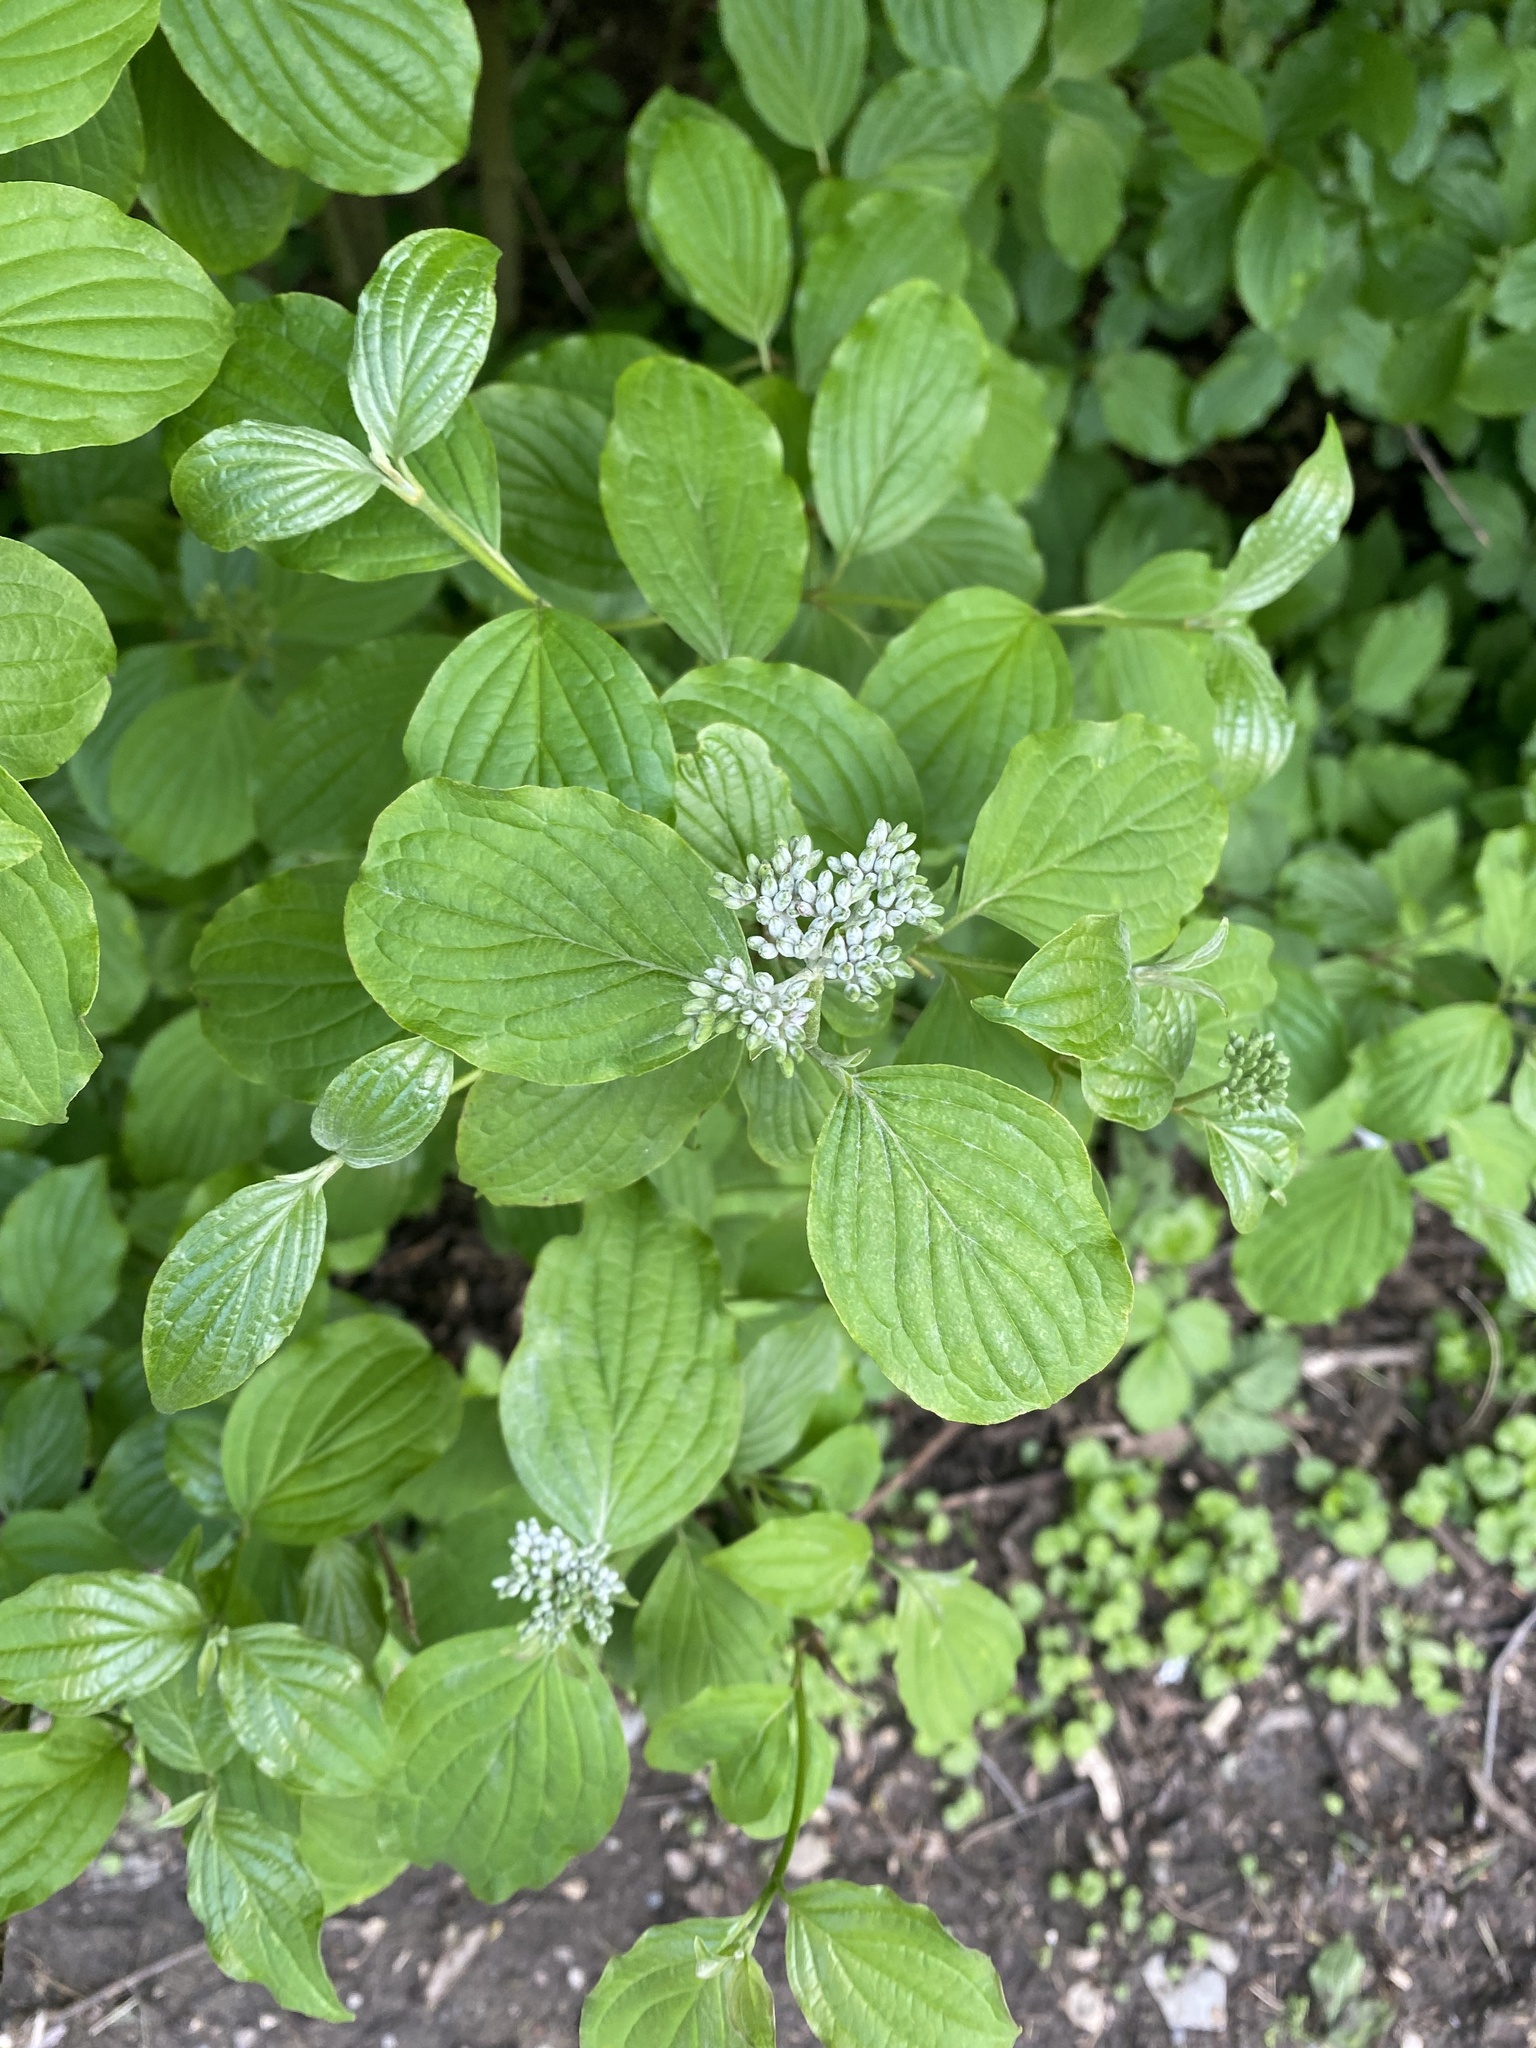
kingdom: Plantae
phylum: Tracheophyta
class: Magnoliopsida
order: Cornales
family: Cornaceae
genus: Cornus
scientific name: Cornus sanguinea
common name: Dogwood
